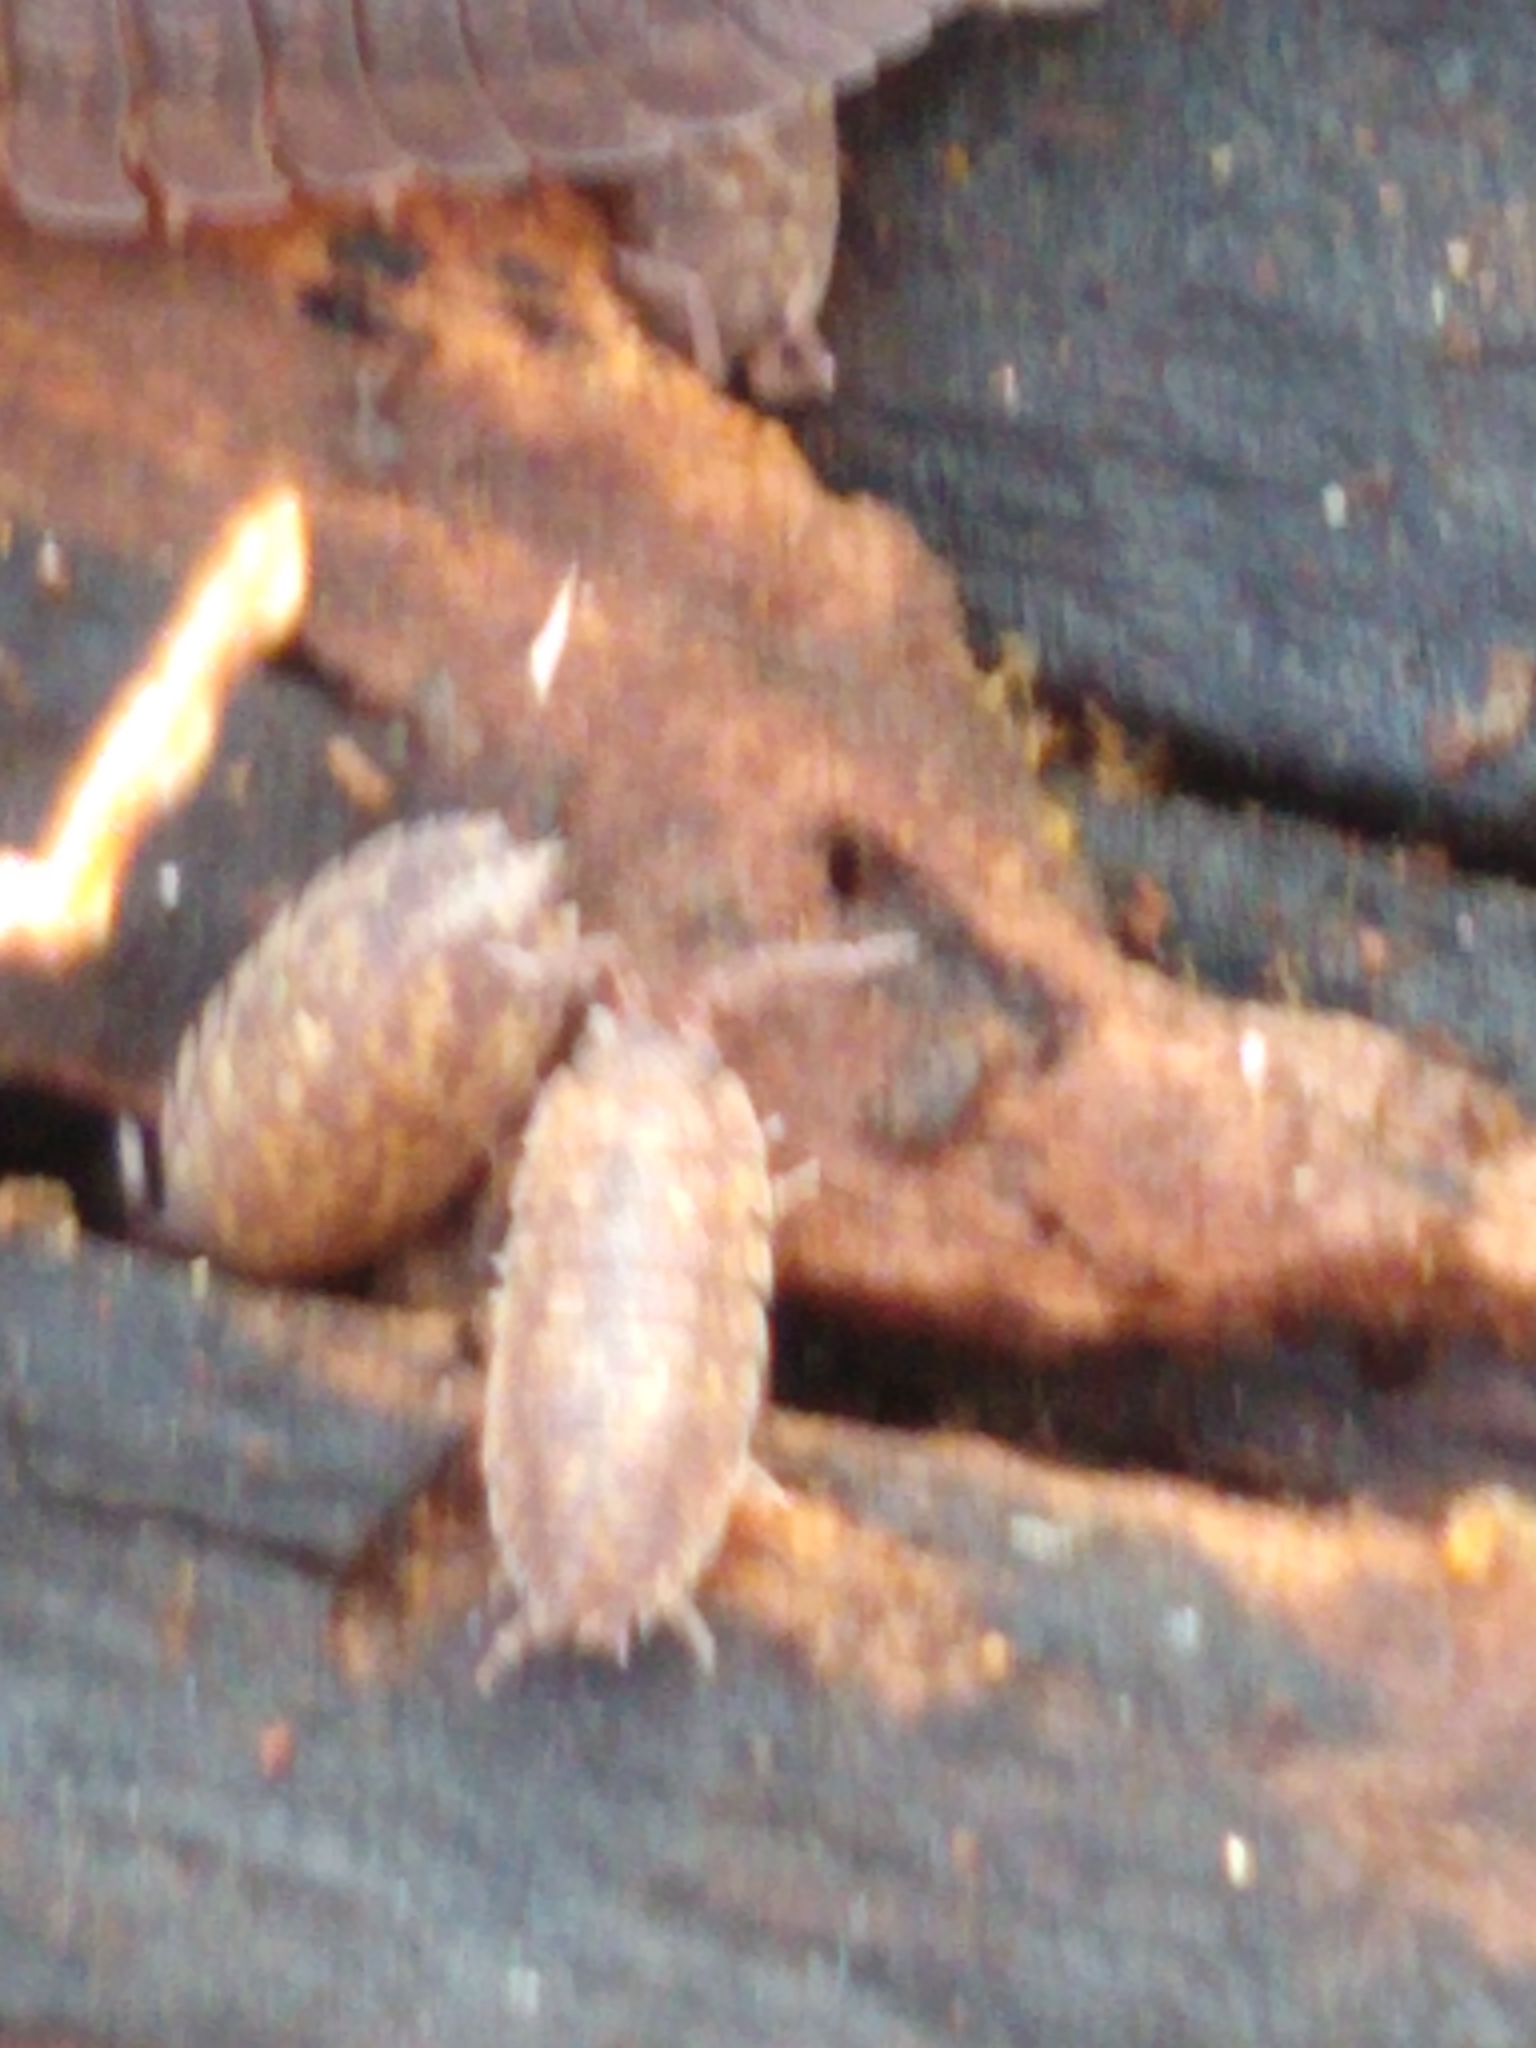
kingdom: Animalia
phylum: Arthropoda
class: Malacostraca
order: Isopoda
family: Porcellionidae
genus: Porcellio
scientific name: Porcellio scaber
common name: Common rough woodlouse
